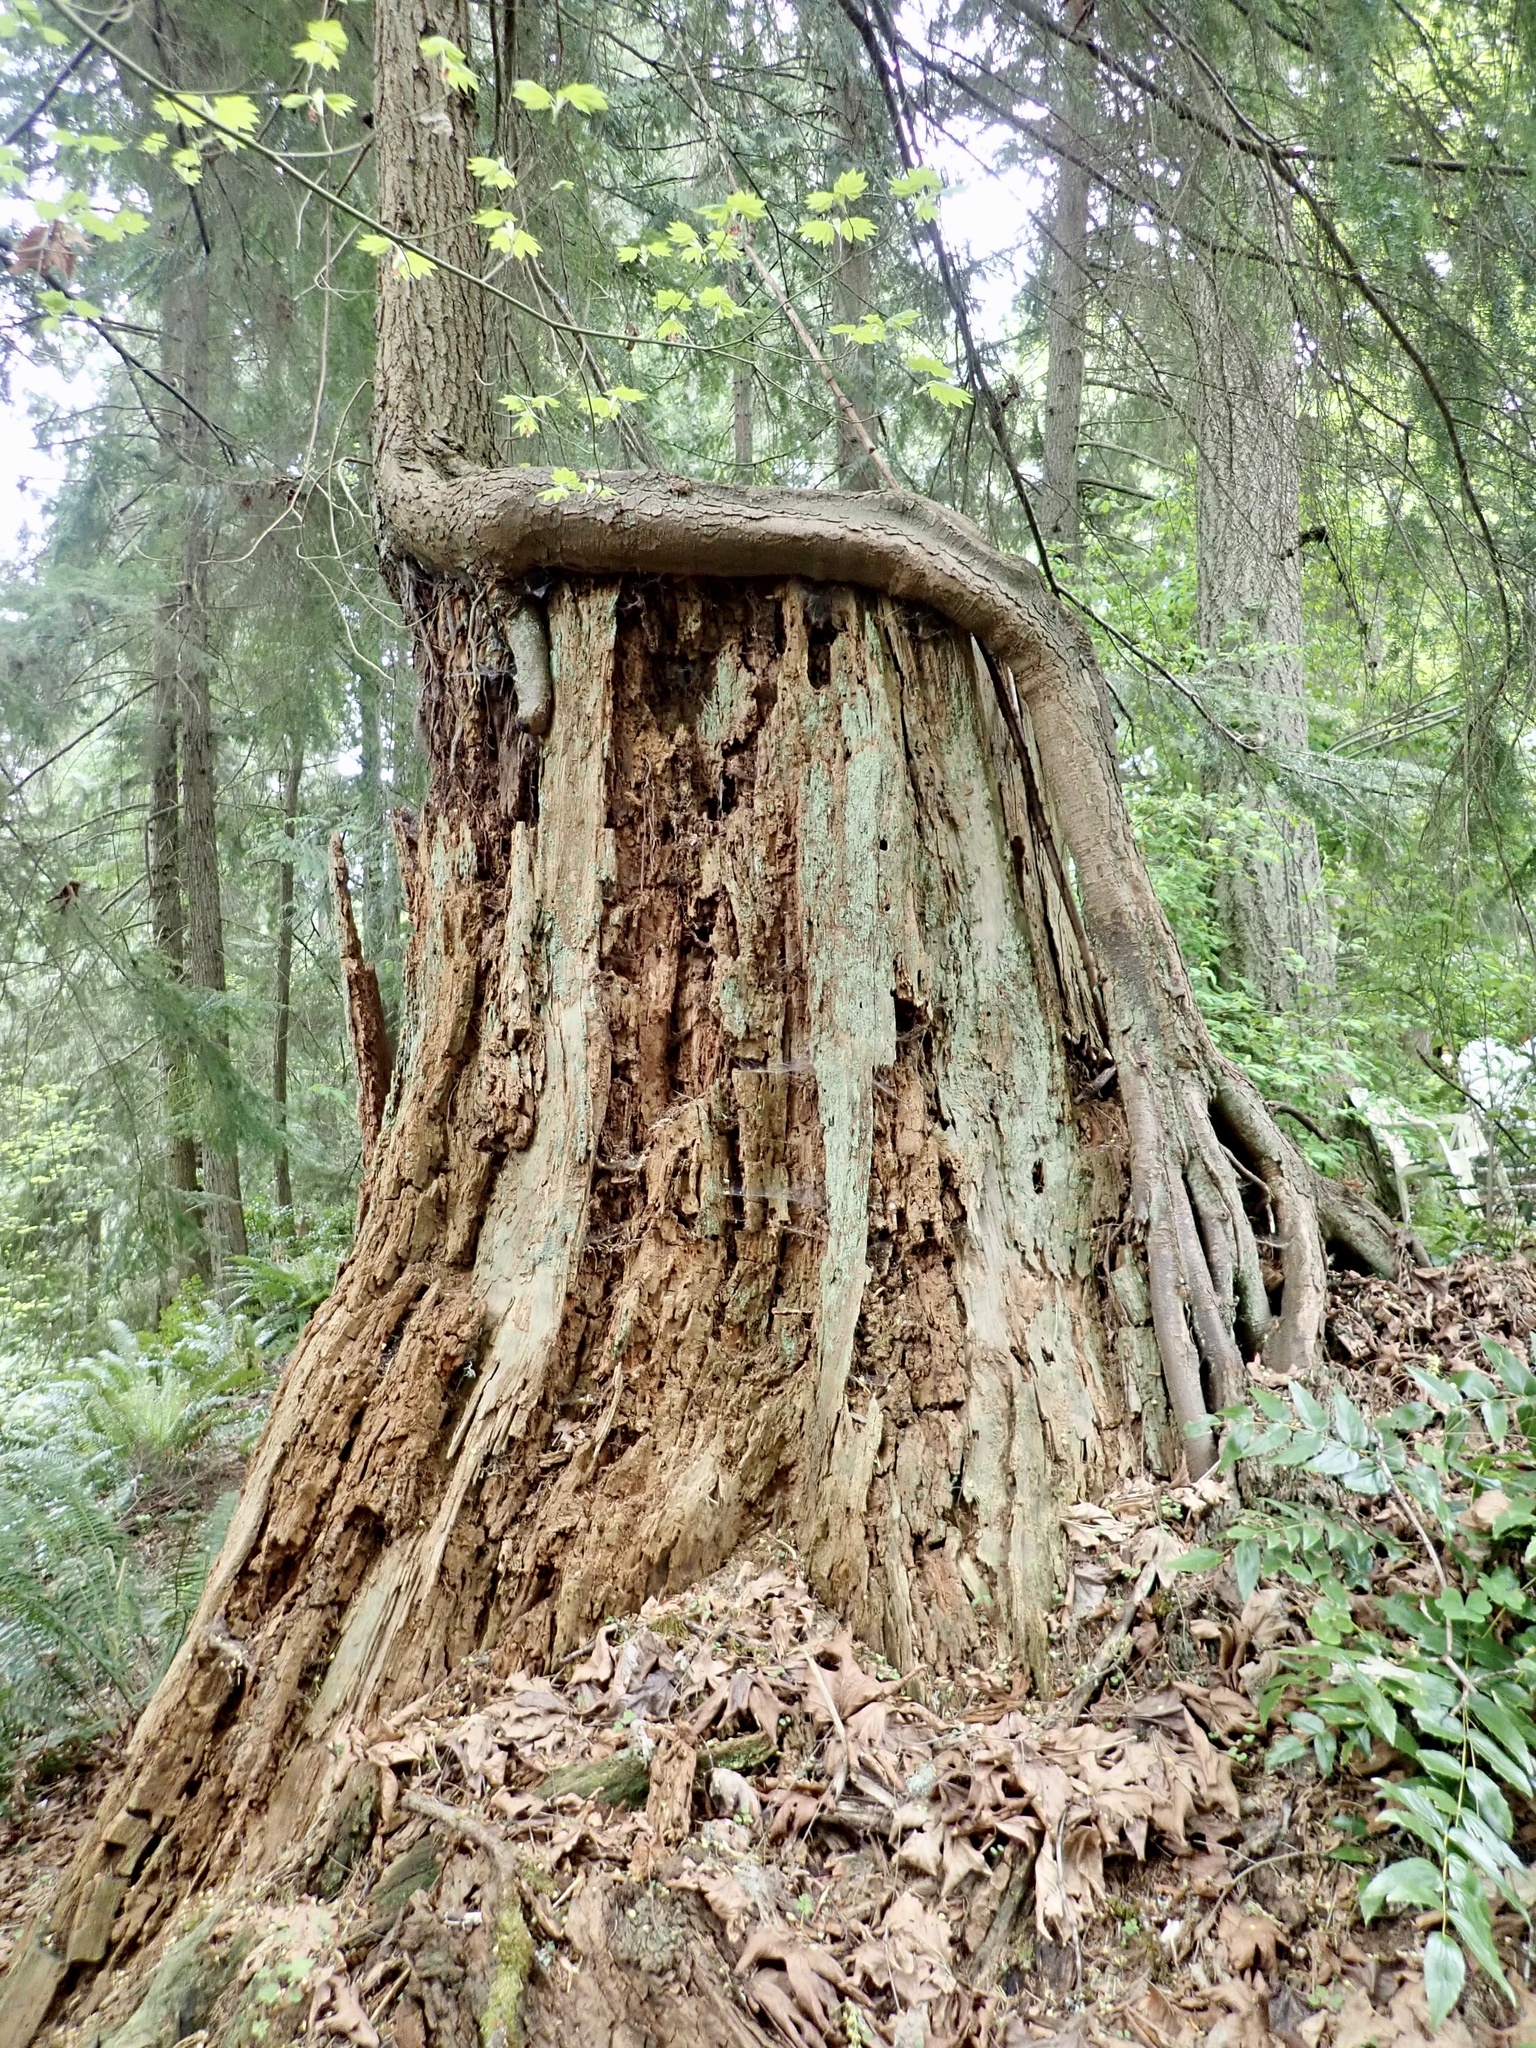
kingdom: Plantae
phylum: Tracheophyta
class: Pinopsida
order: Pinales
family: Pinaceae
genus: Tsuga
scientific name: Tsuga heterophylla
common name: Western hemlock
